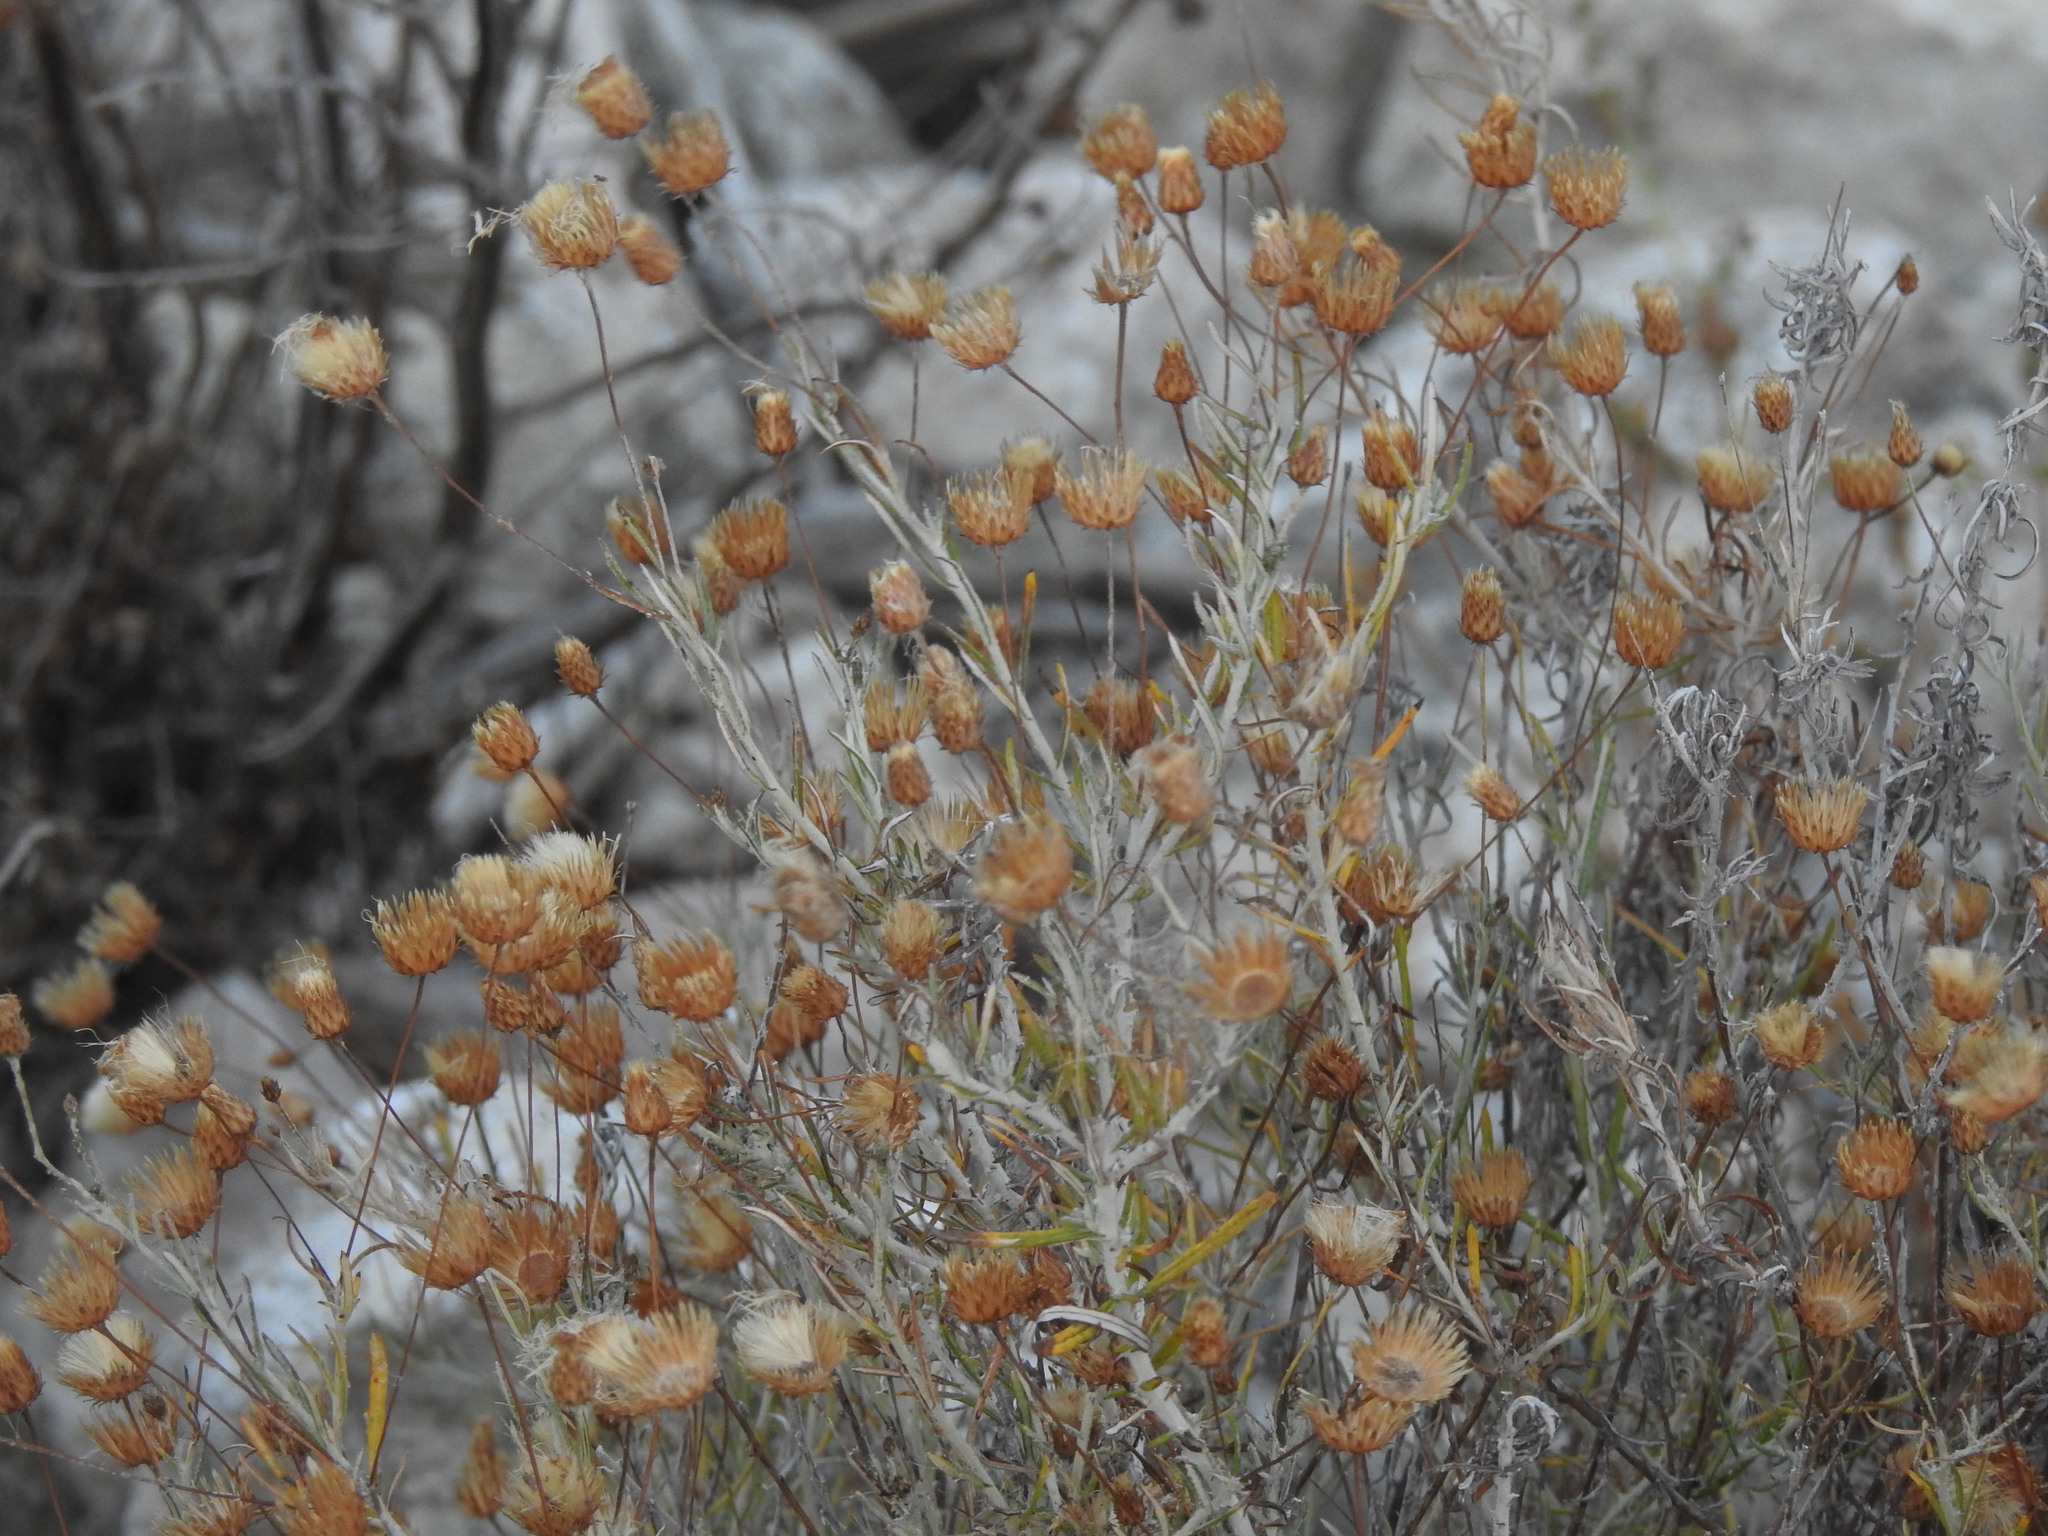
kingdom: Plantae
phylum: Tracheophyta
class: Magnoliopsida
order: Asterales
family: Asteraceae
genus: Phagnalon
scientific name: Phagnalon saxatile
